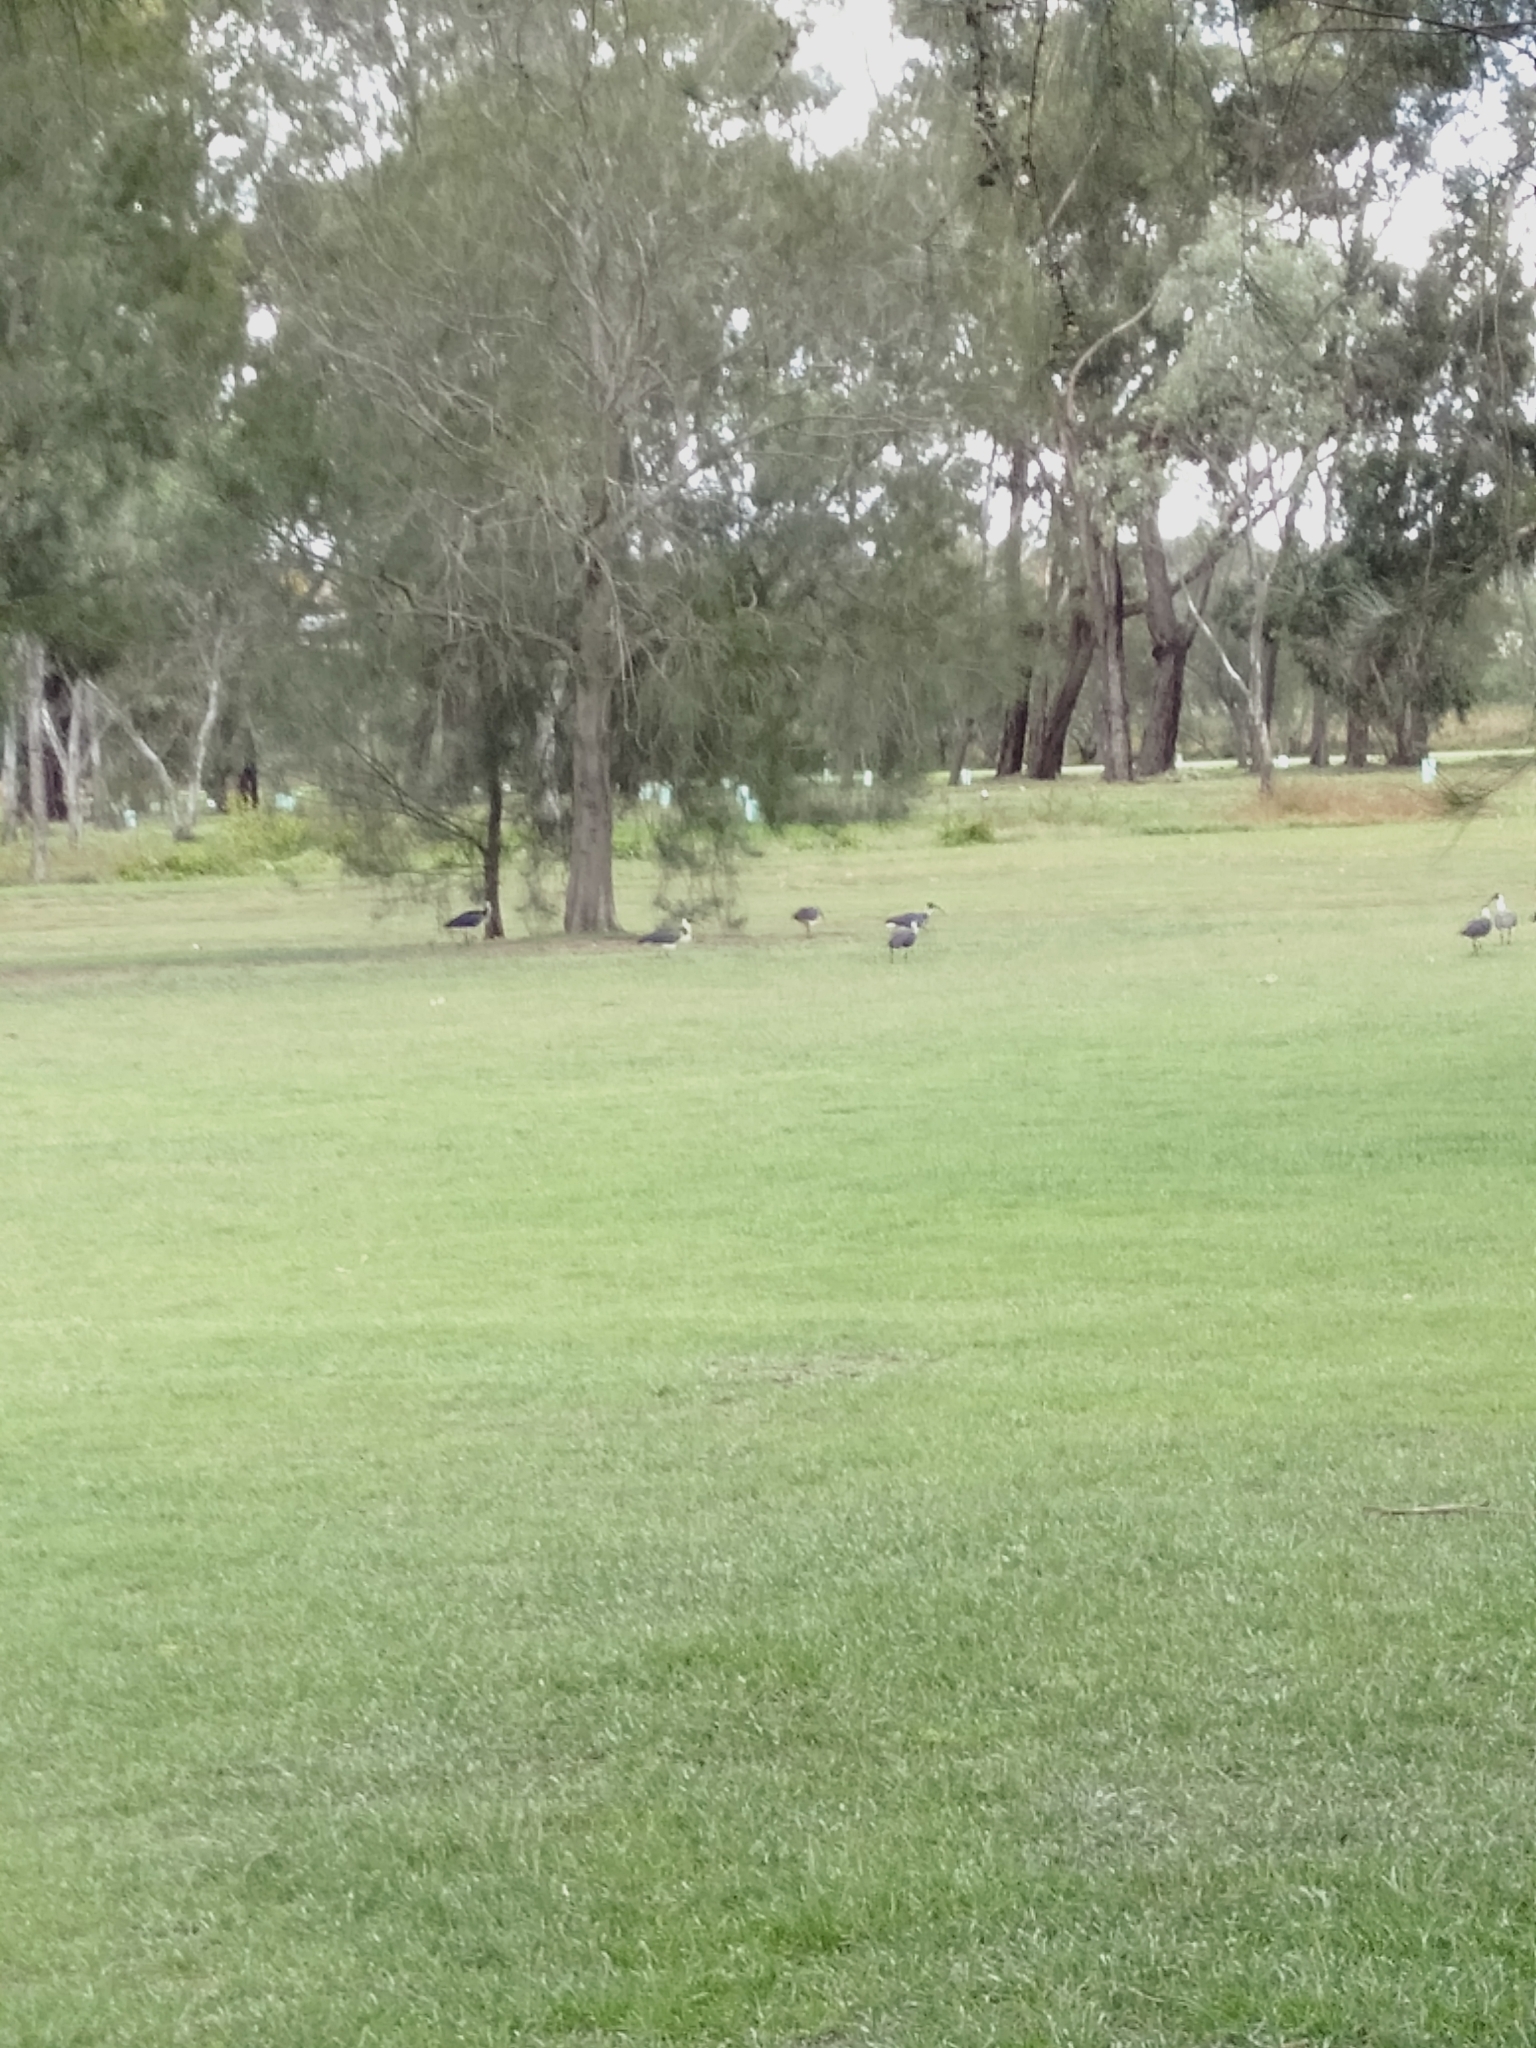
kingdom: Animalia
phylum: Chordata
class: Aves
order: Pelecaniformes
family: Threskiornithidae
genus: Threskiornis
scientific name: Threskiornis spinicollis
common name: Straw-necked ibis
